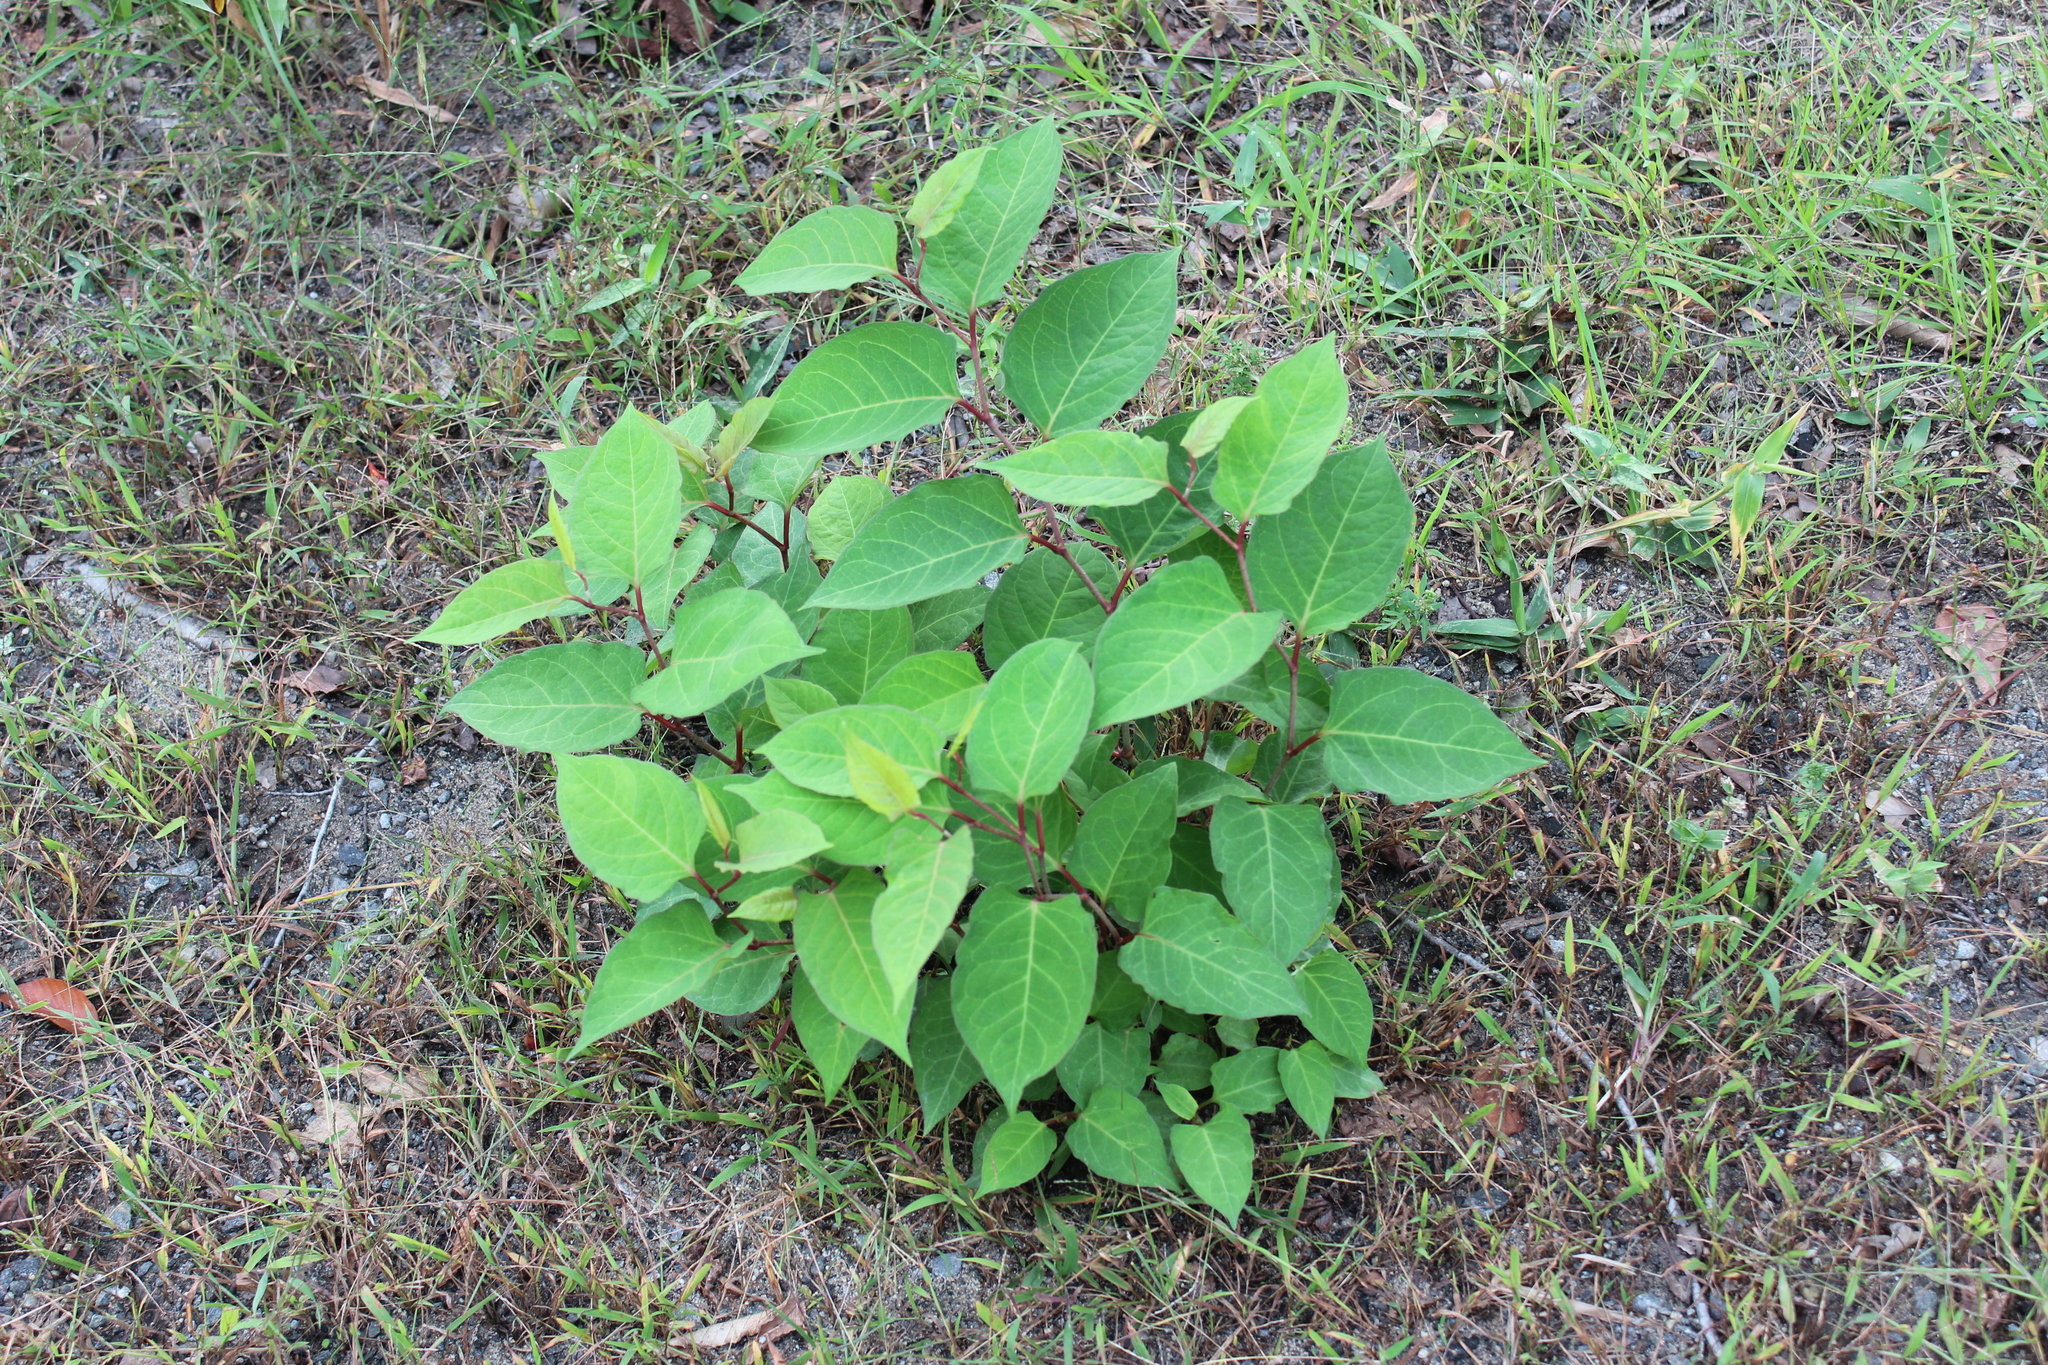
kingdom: Plantae
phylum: Tracheophyta
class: Magnoliopsida
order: Caryophyllales
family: Polygonaceae
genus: Reynoutria
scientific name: Reynoutria japonica
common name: Japanese knotweed
